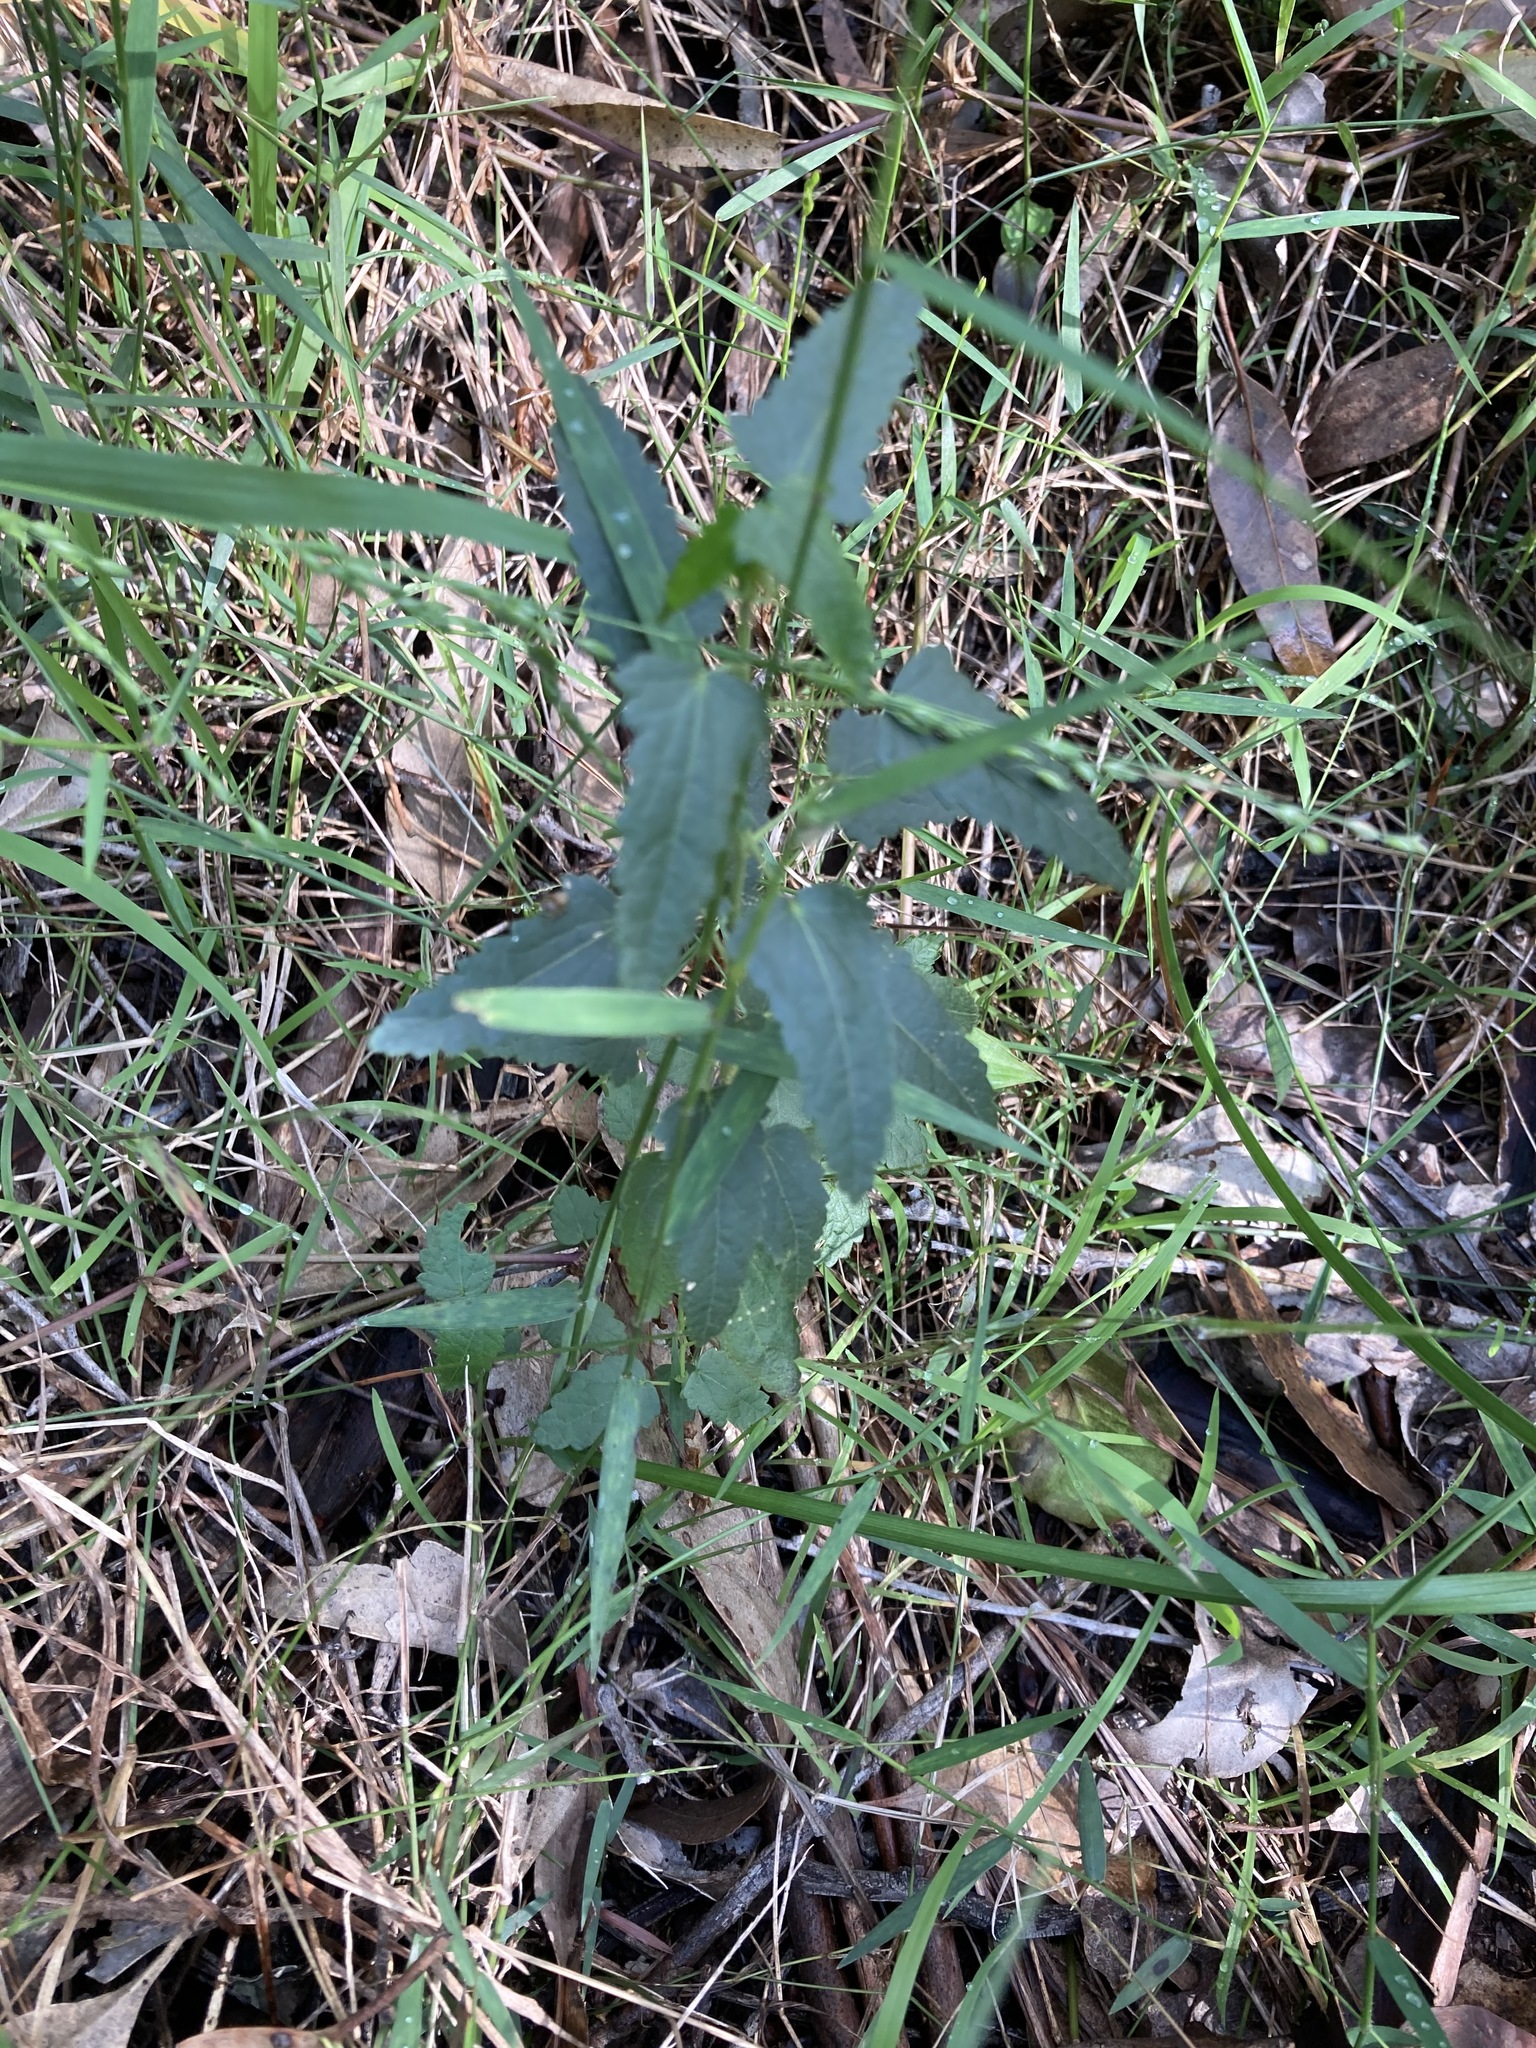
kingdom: Plantae
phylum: Tracheophyta
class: Magnoliopsida
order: Malvales
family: Malvaceae
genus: Pavonia
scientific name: Pavonia hastata
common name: Spearleaf swampmallow
